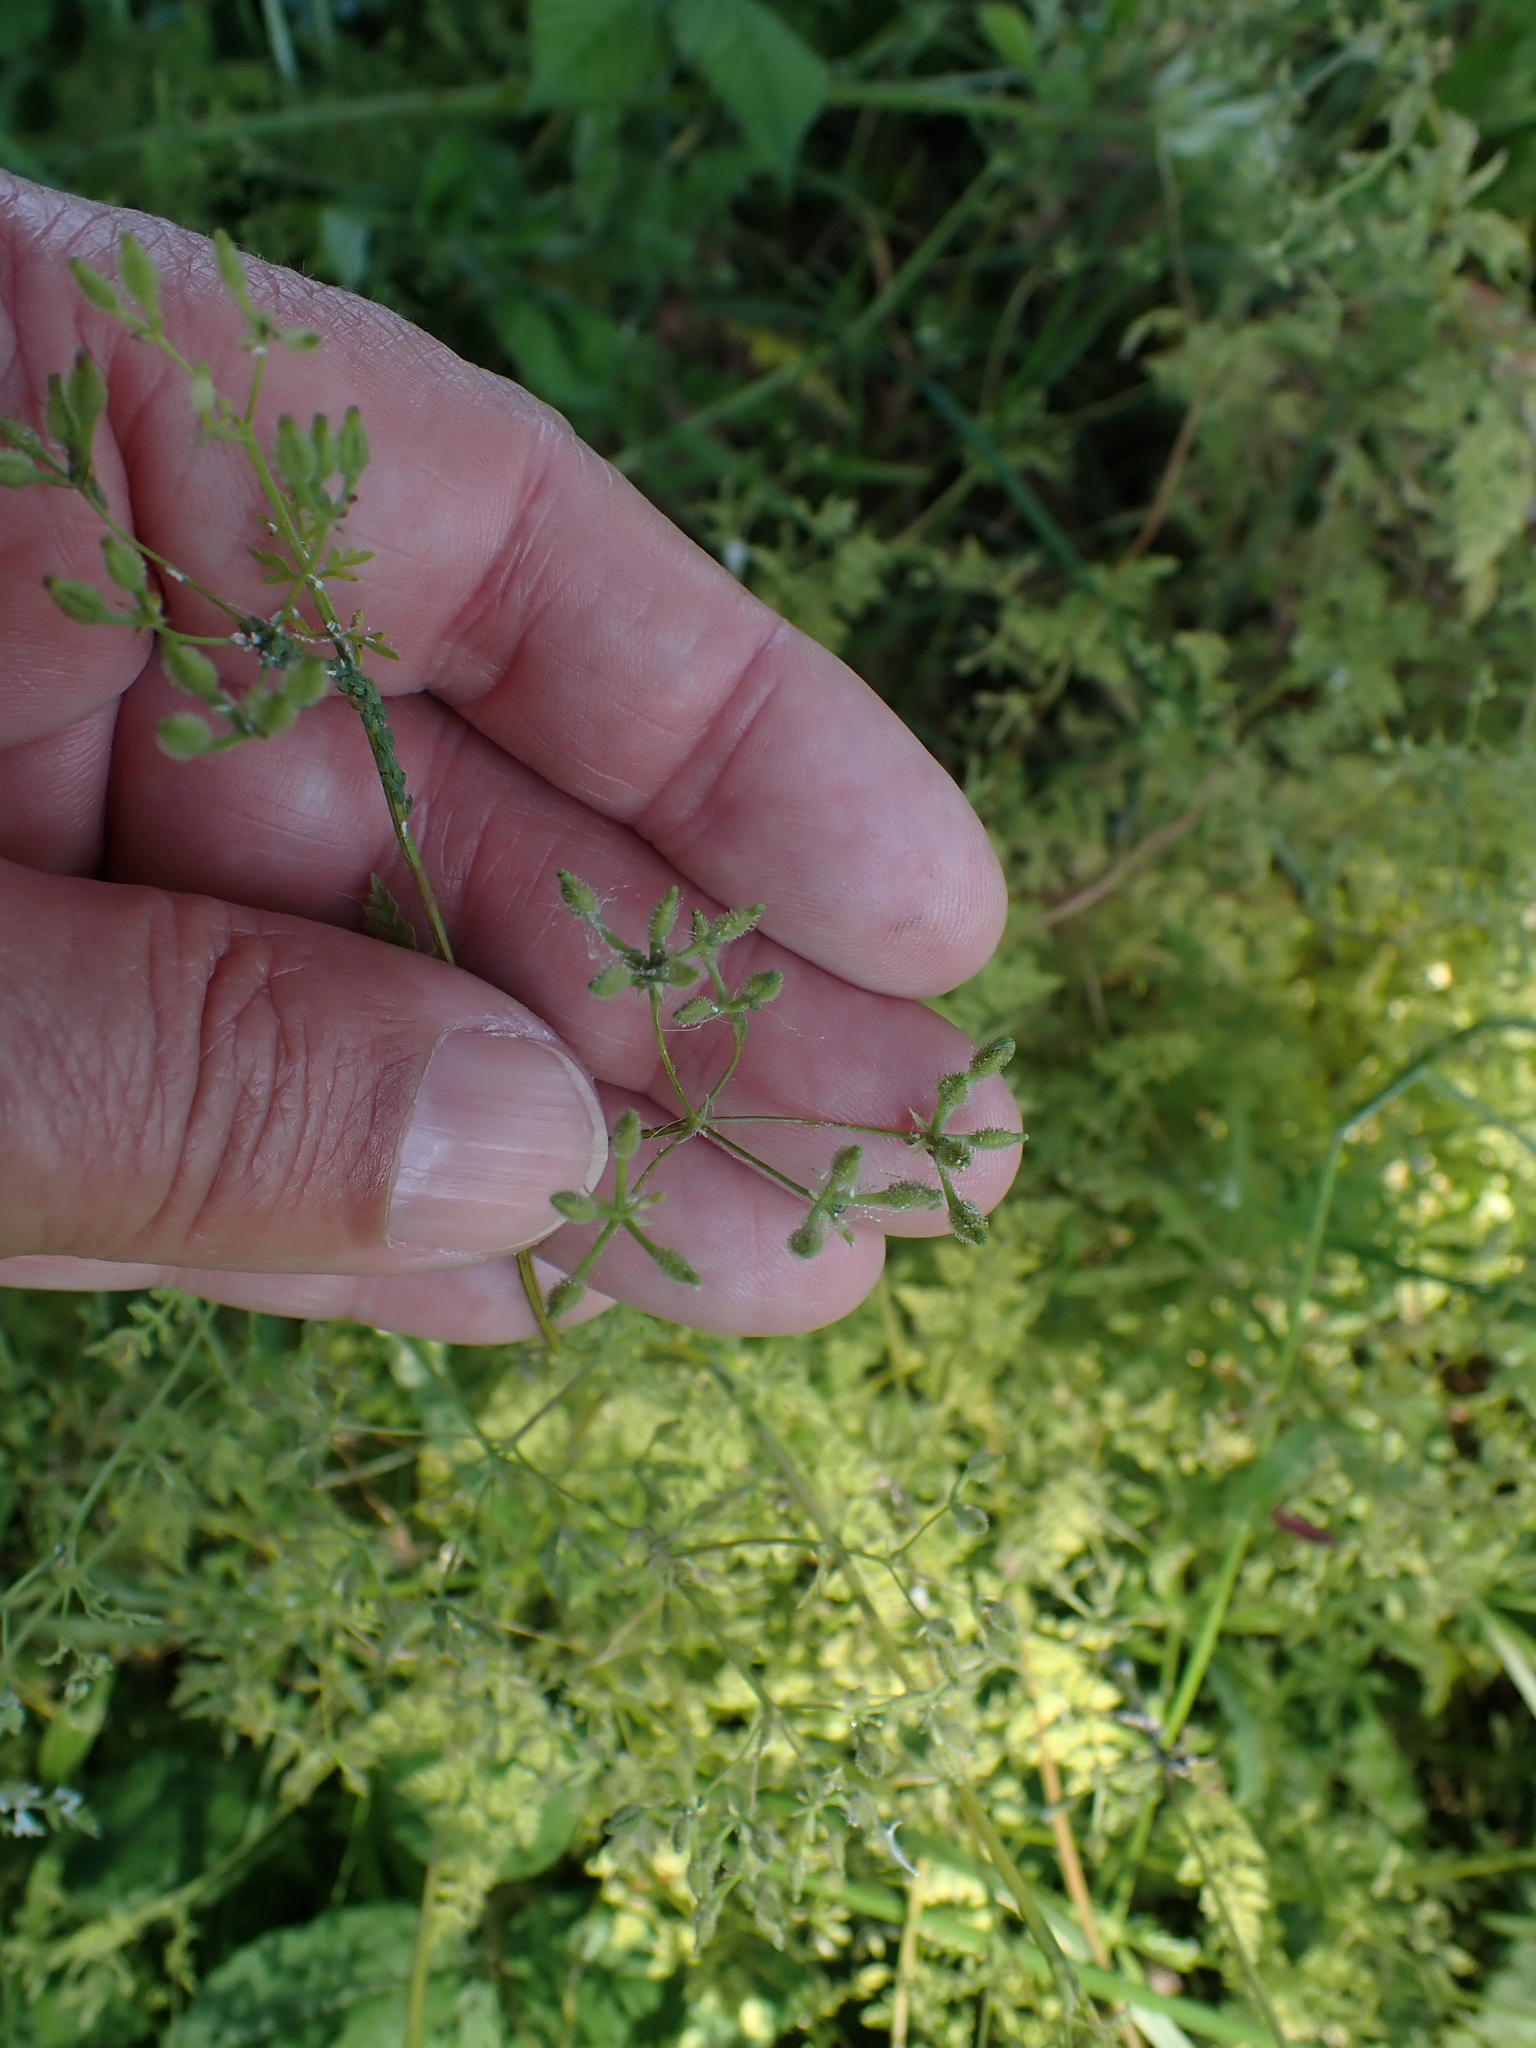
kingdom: Plantae
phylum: Tracheophyta
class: Magnoliopsida
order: Apiales
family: Apiaceae
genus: Anthriscus
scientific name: Anthriscus caucalis
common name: Bur chervil
